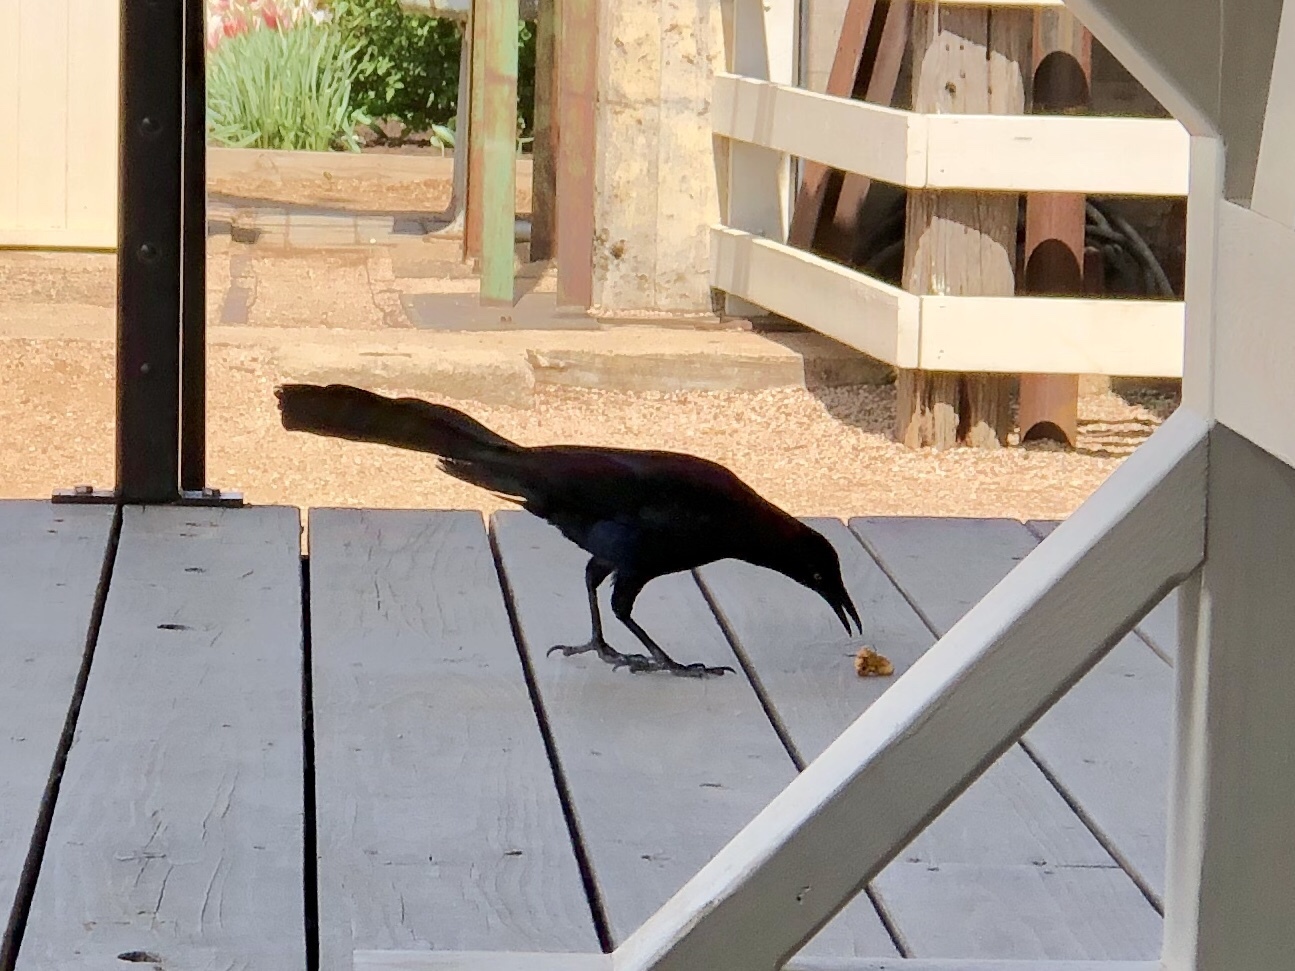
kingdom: Animalia
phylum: Chordata
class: Aves
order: Passeriformes
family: Icteridae
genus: Quiscalus
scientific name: Quiscalus mexicanus
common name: Great-tailed grackle
